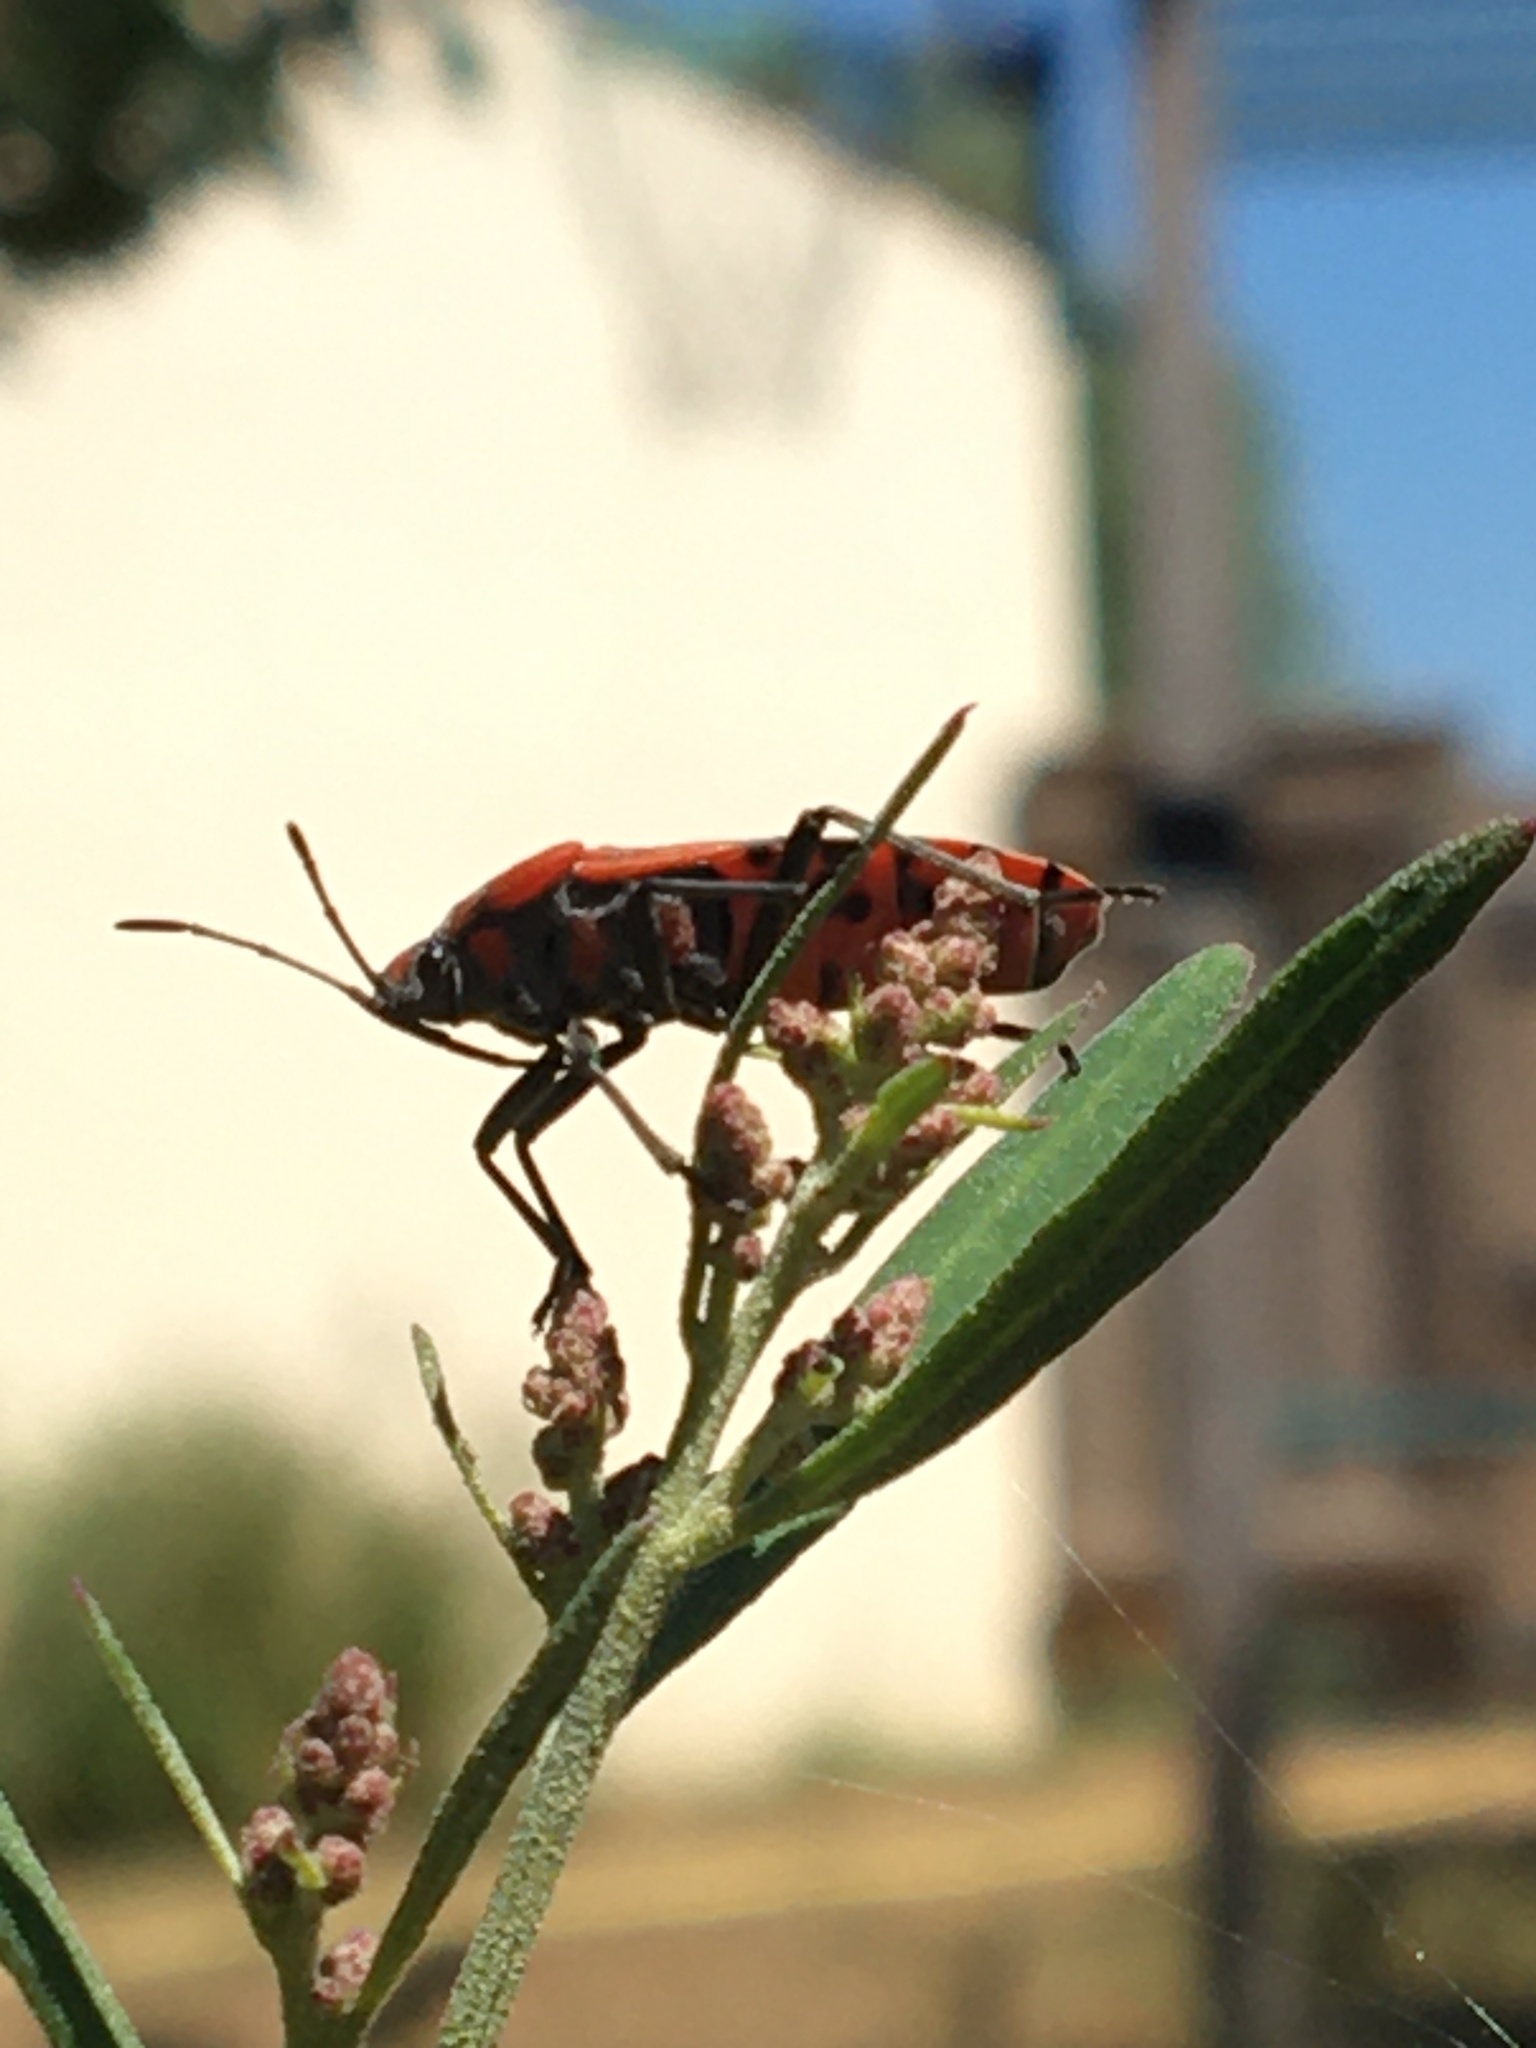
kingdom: Animalia
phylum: Arthropoda
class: Insecta
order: Hemiptera
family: Lygaeidae
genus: Spilostethus
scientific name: Spilostethus pandurus
